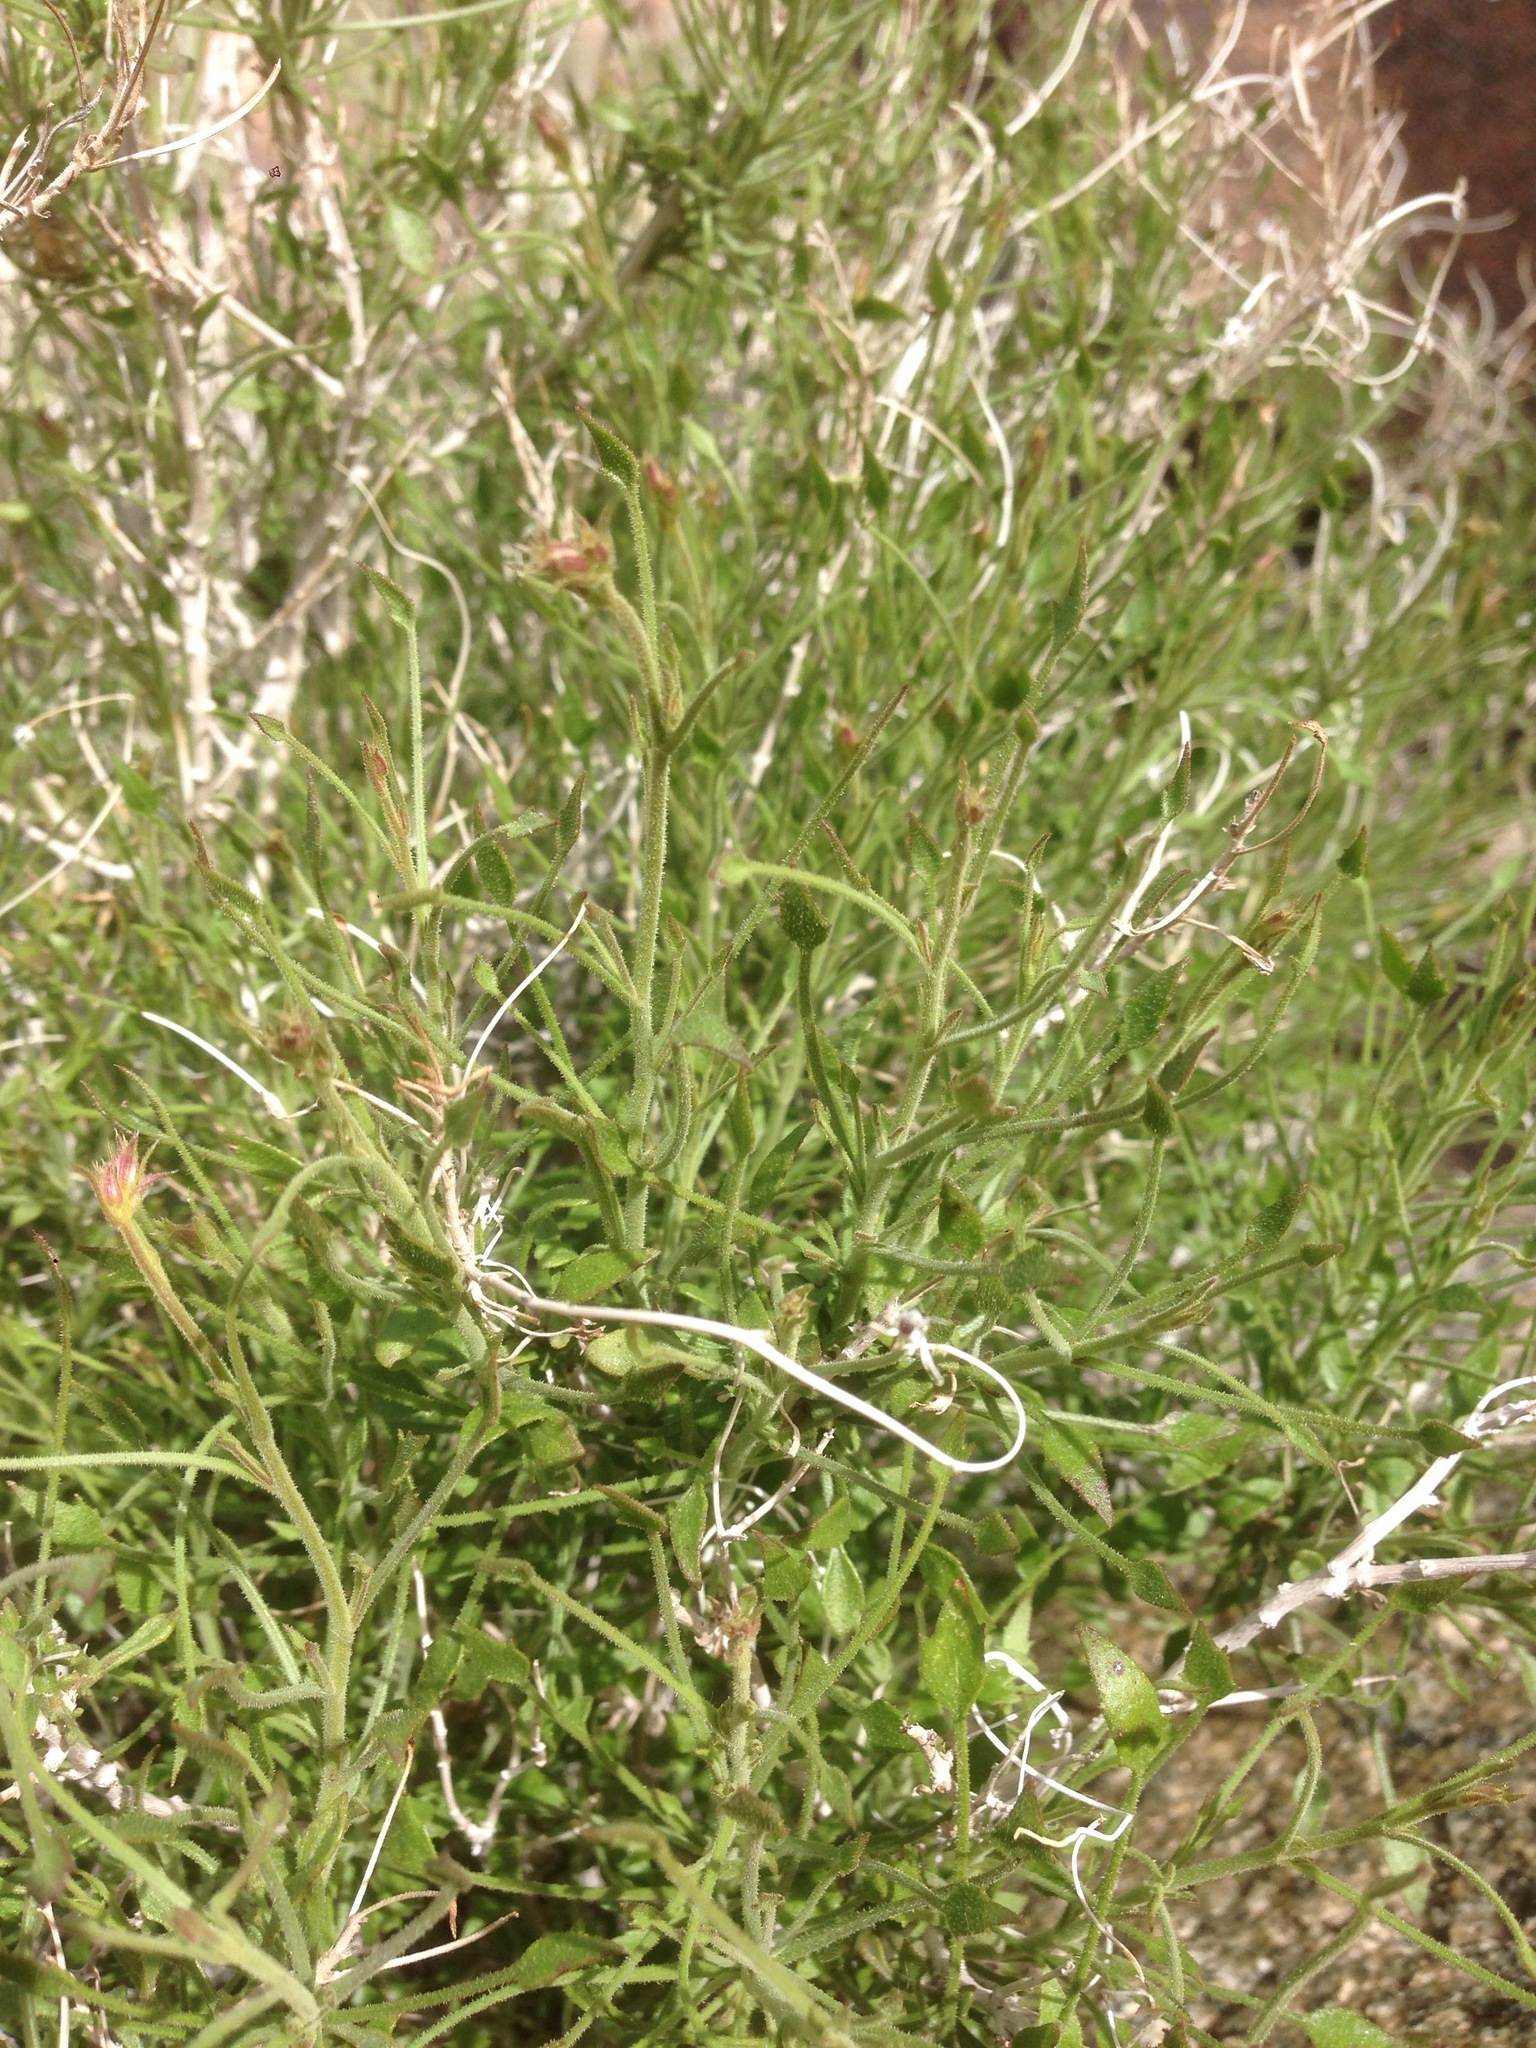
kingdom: Plantae
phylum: Tracheophyta
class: Magnoliopsida
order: Asterales
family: Asteraceae
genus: Pleurocoronis
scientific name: Pleurocoronis pluriseta
